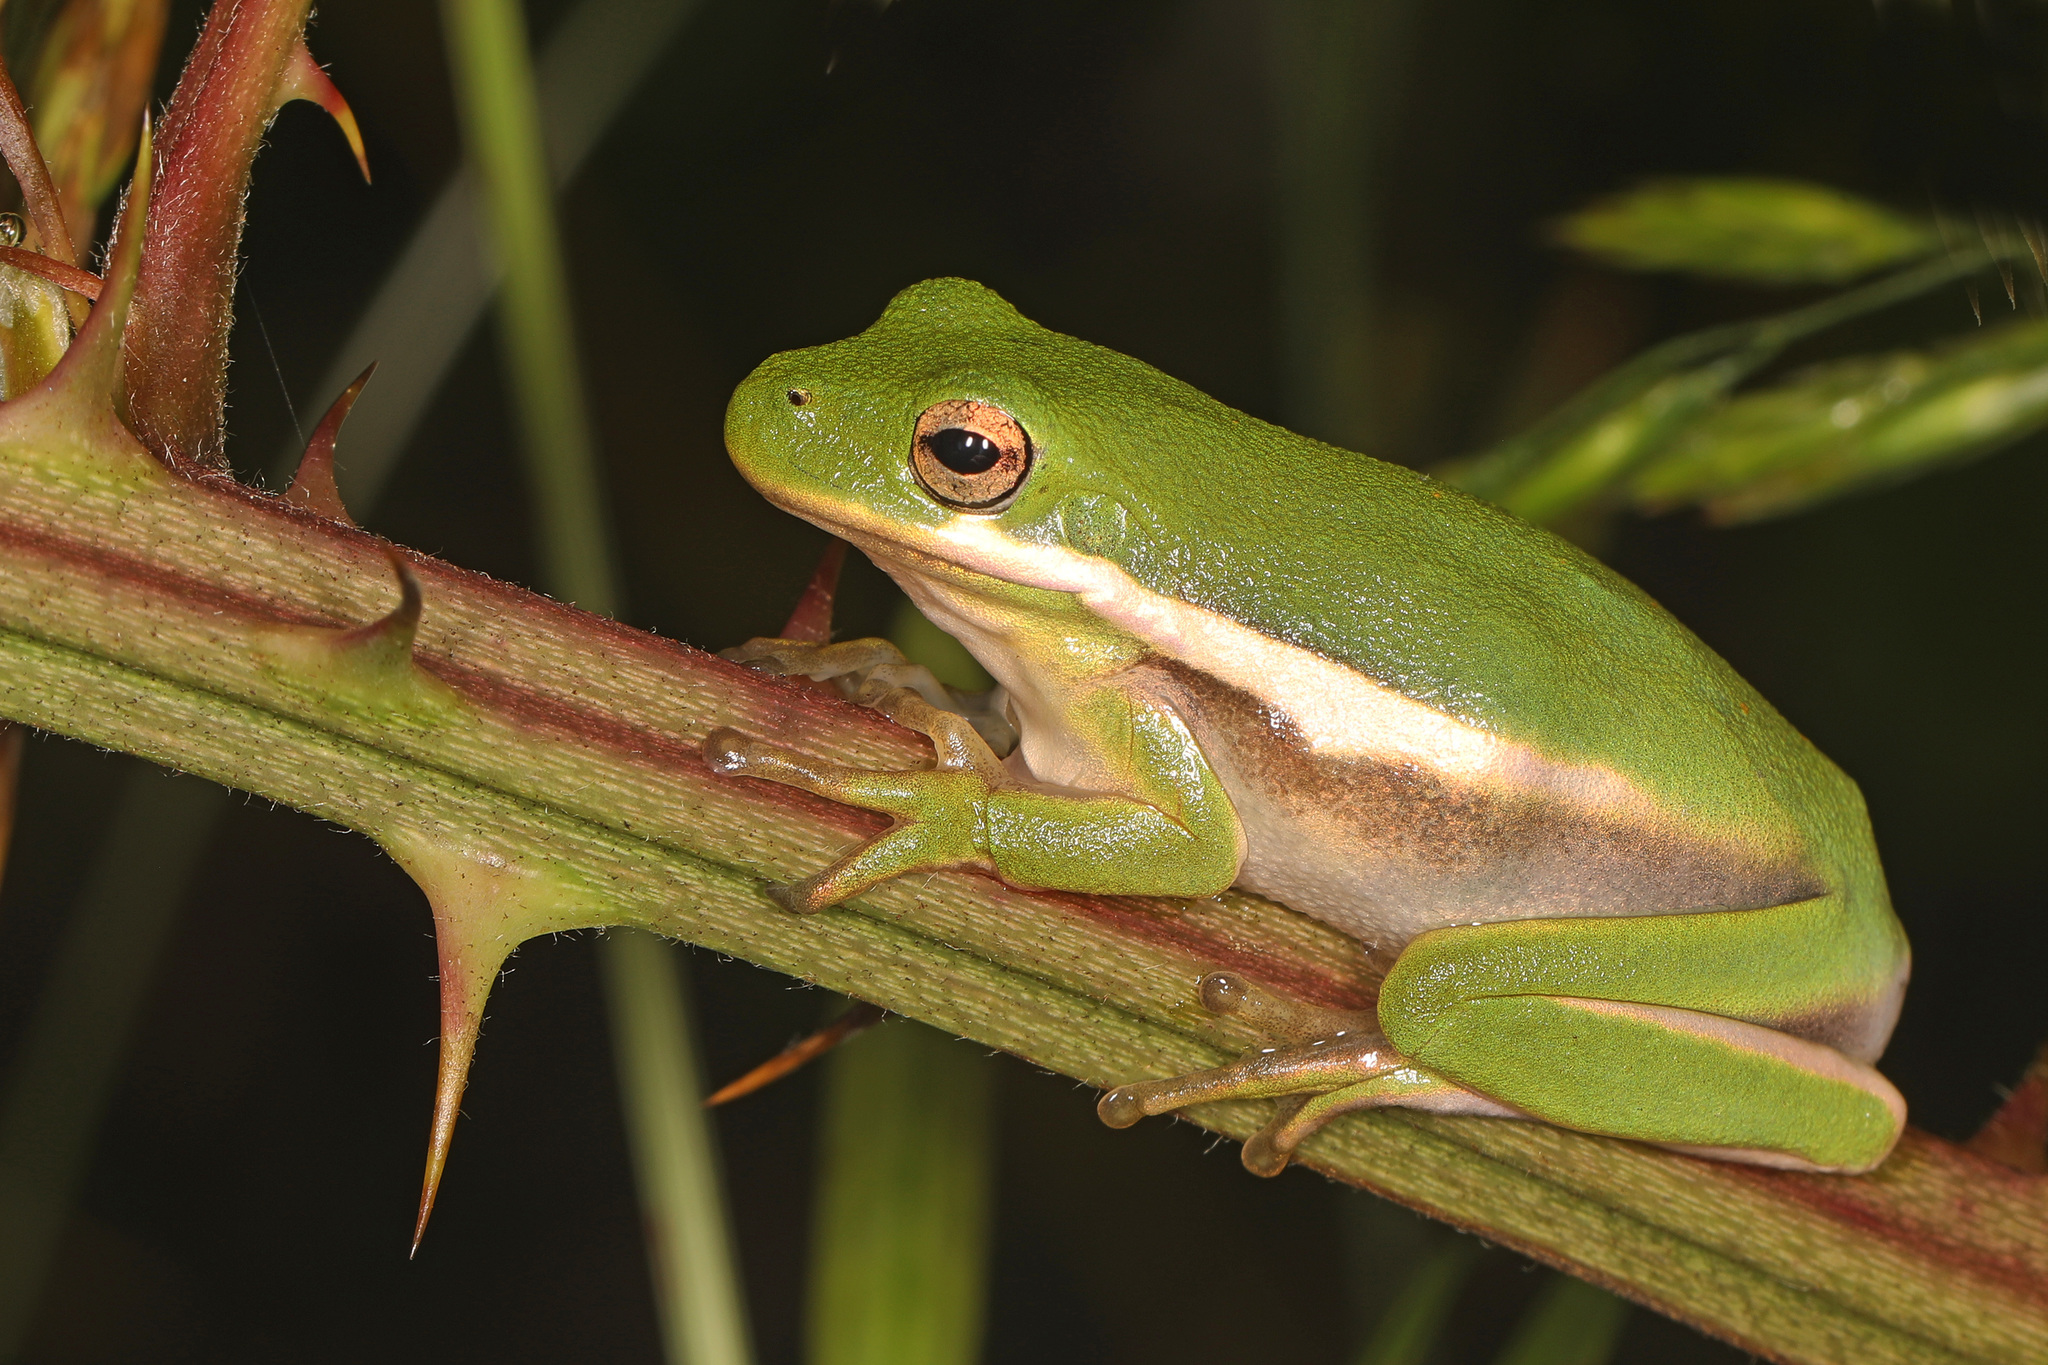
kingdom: Animalia
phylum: Chordata
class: Amphibia
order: Anura
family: Hylidae
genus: Dryophytes
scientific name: Dryophytes cinereus
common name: Green treefrog
